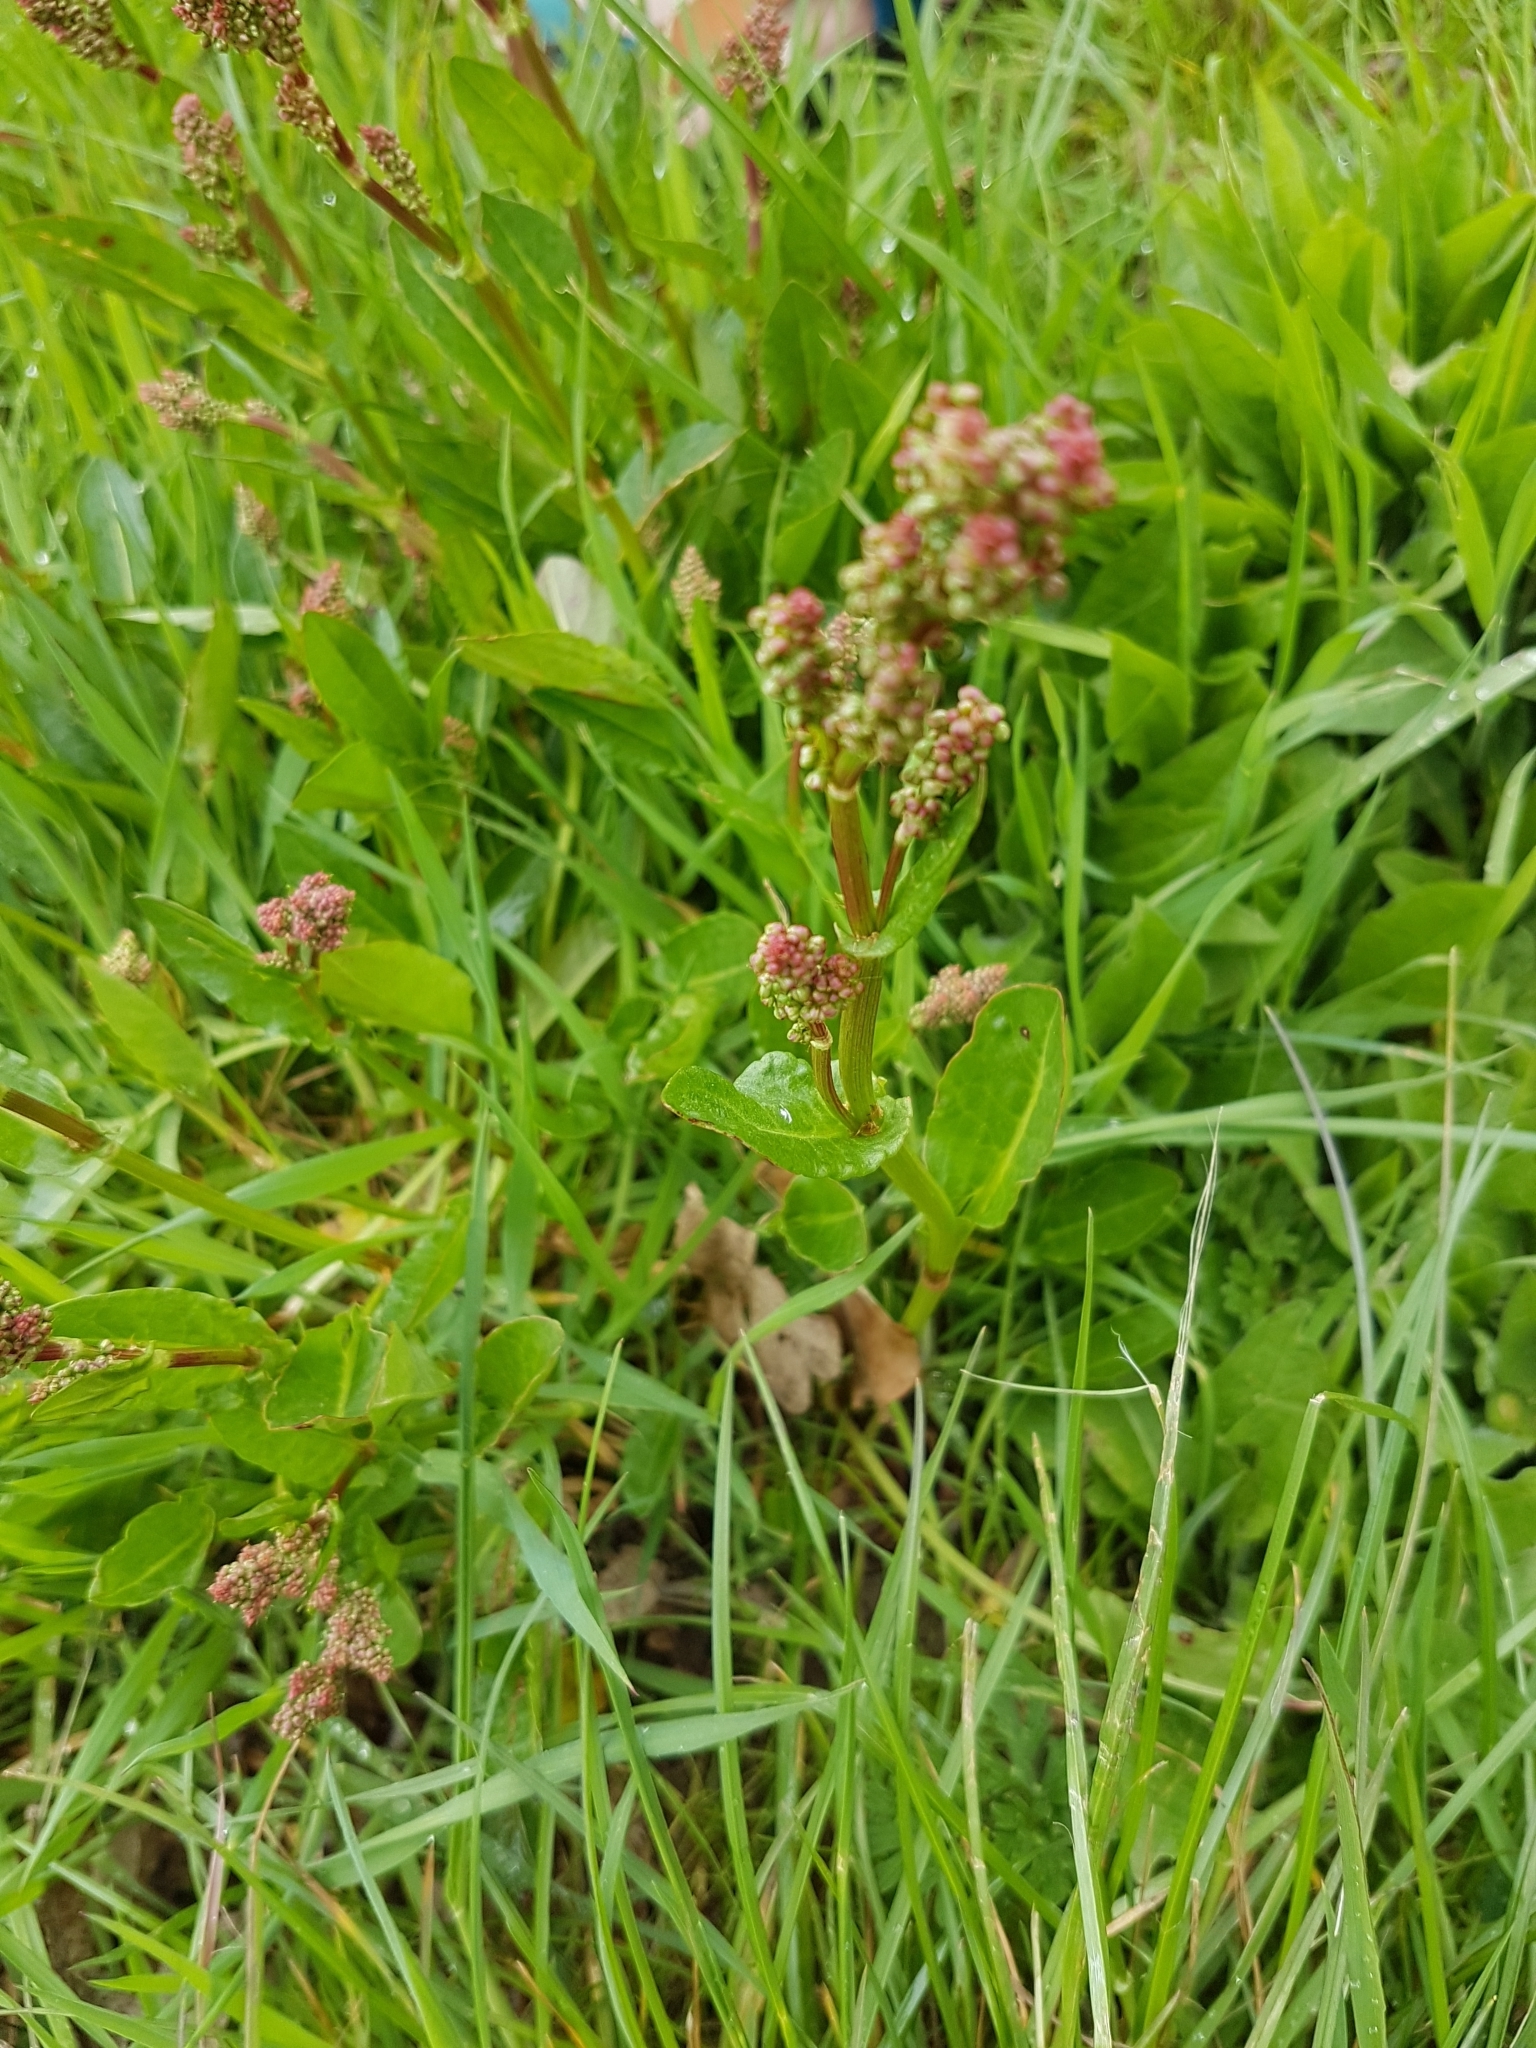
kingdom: Plantae
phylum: Tracheophyta
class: Magnoliopsida
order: Caryophyllales
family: Polygonaceae
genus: Rumex
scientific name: Rumex acetosa
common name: Garden sorrel
